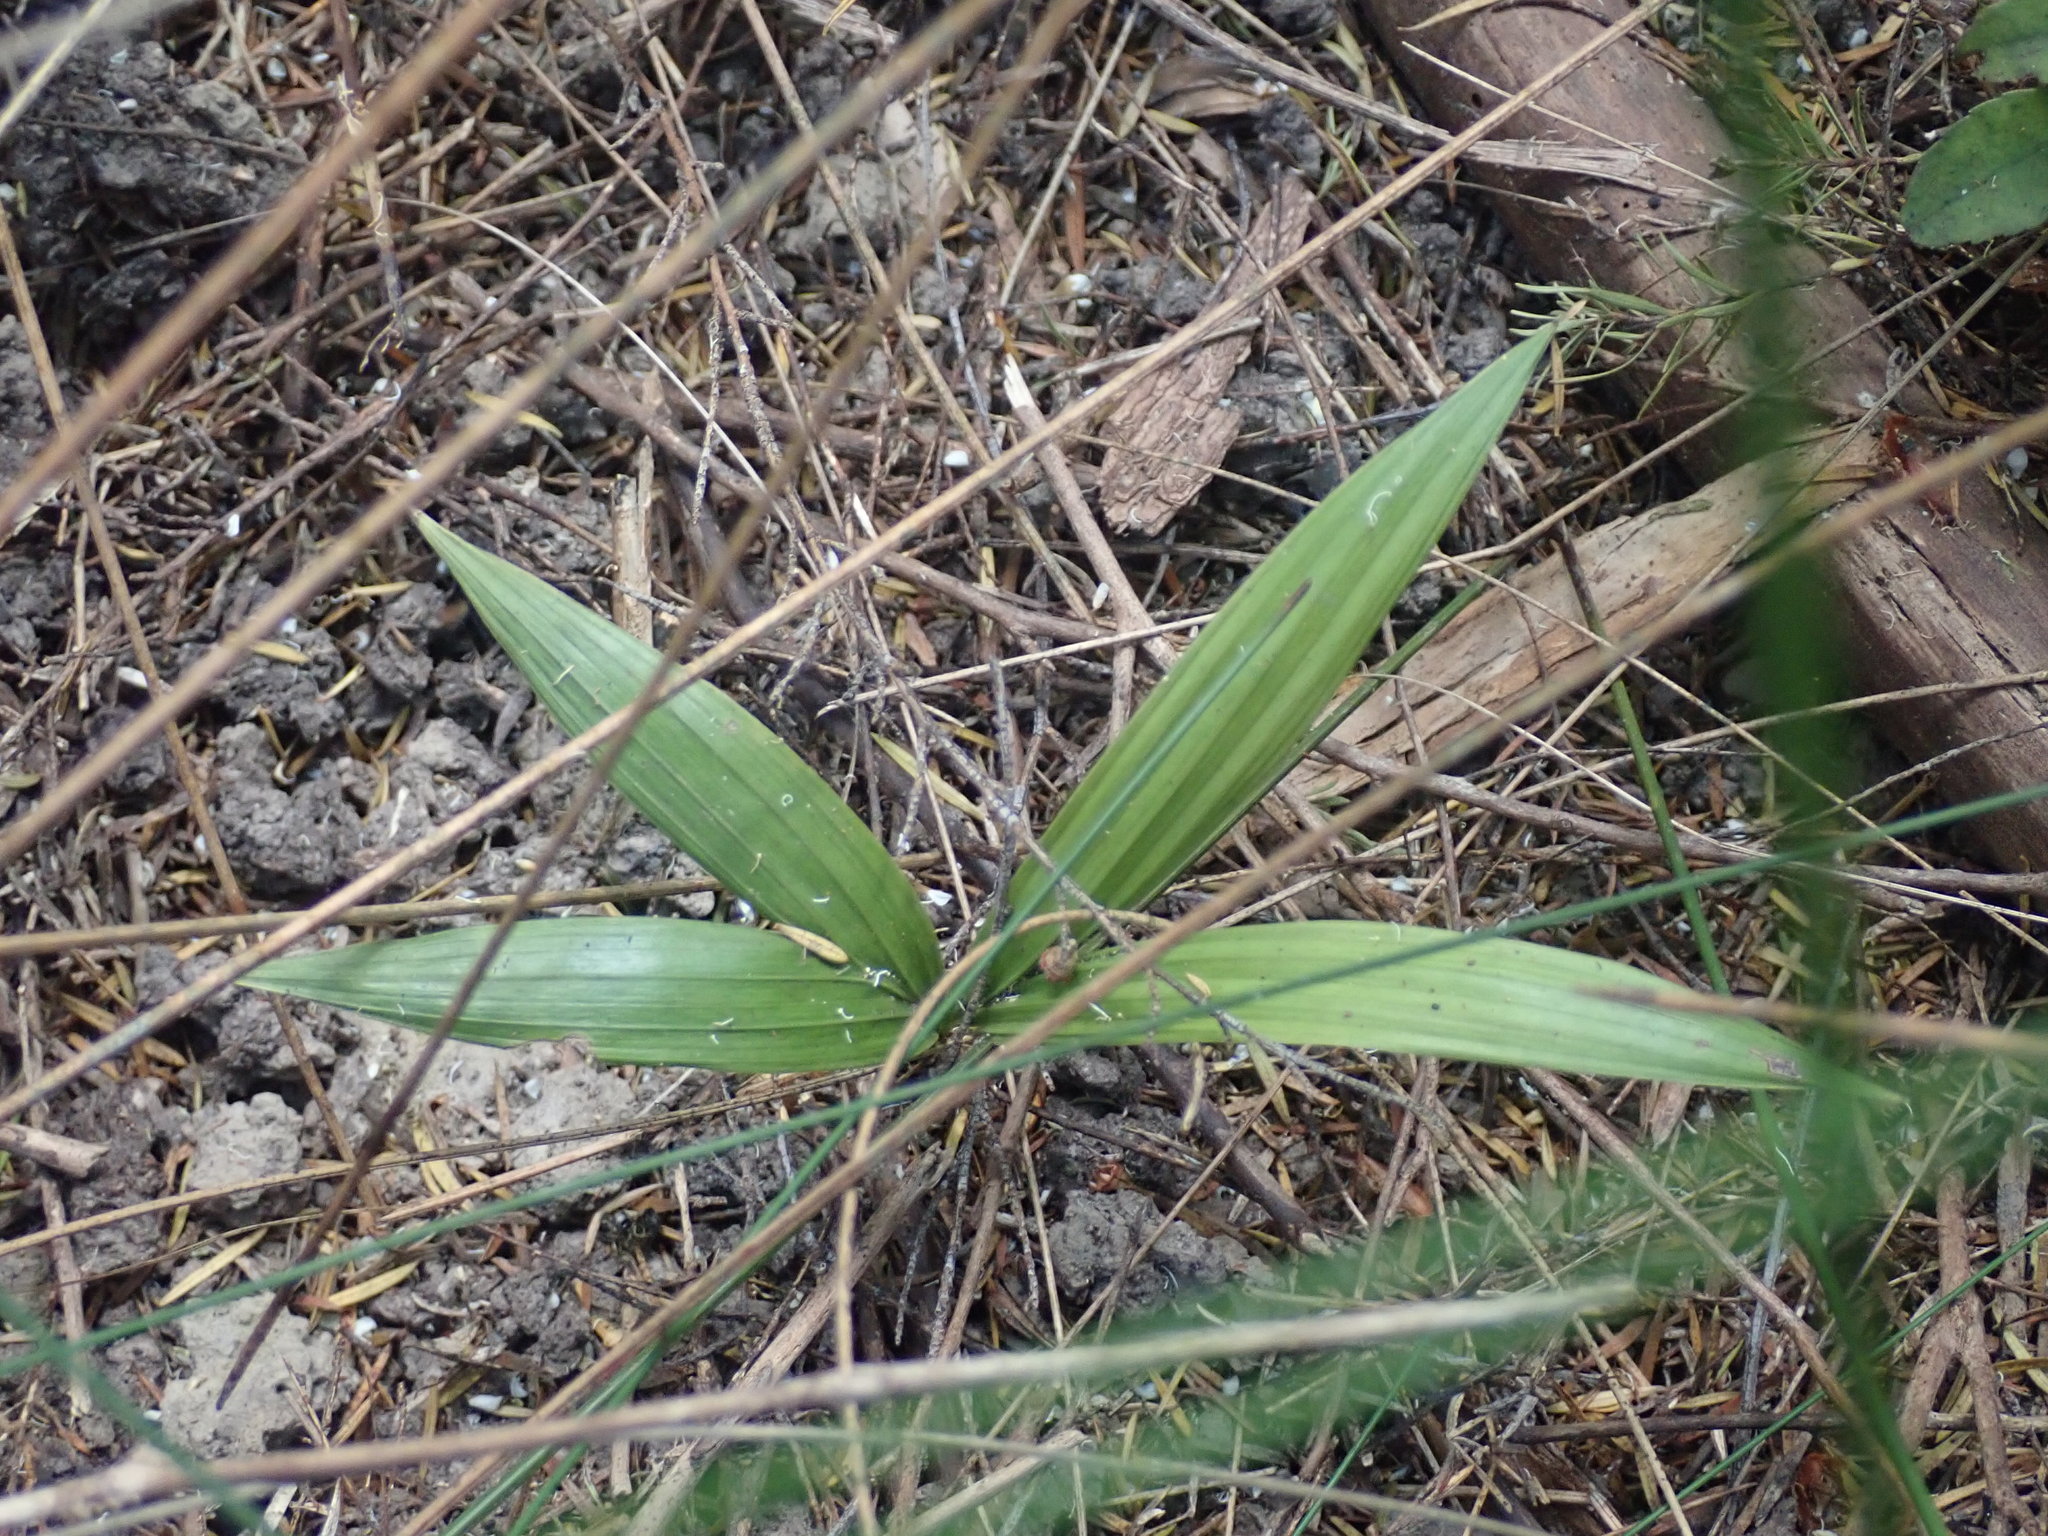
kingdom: Plantae
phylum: Tracheophyta
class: Liliopsida
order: Arecales
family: Arecaceae
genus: Archontophoenix
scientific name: Archontophoenix cunninghamiana
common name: Piccabeen bangalow palm
